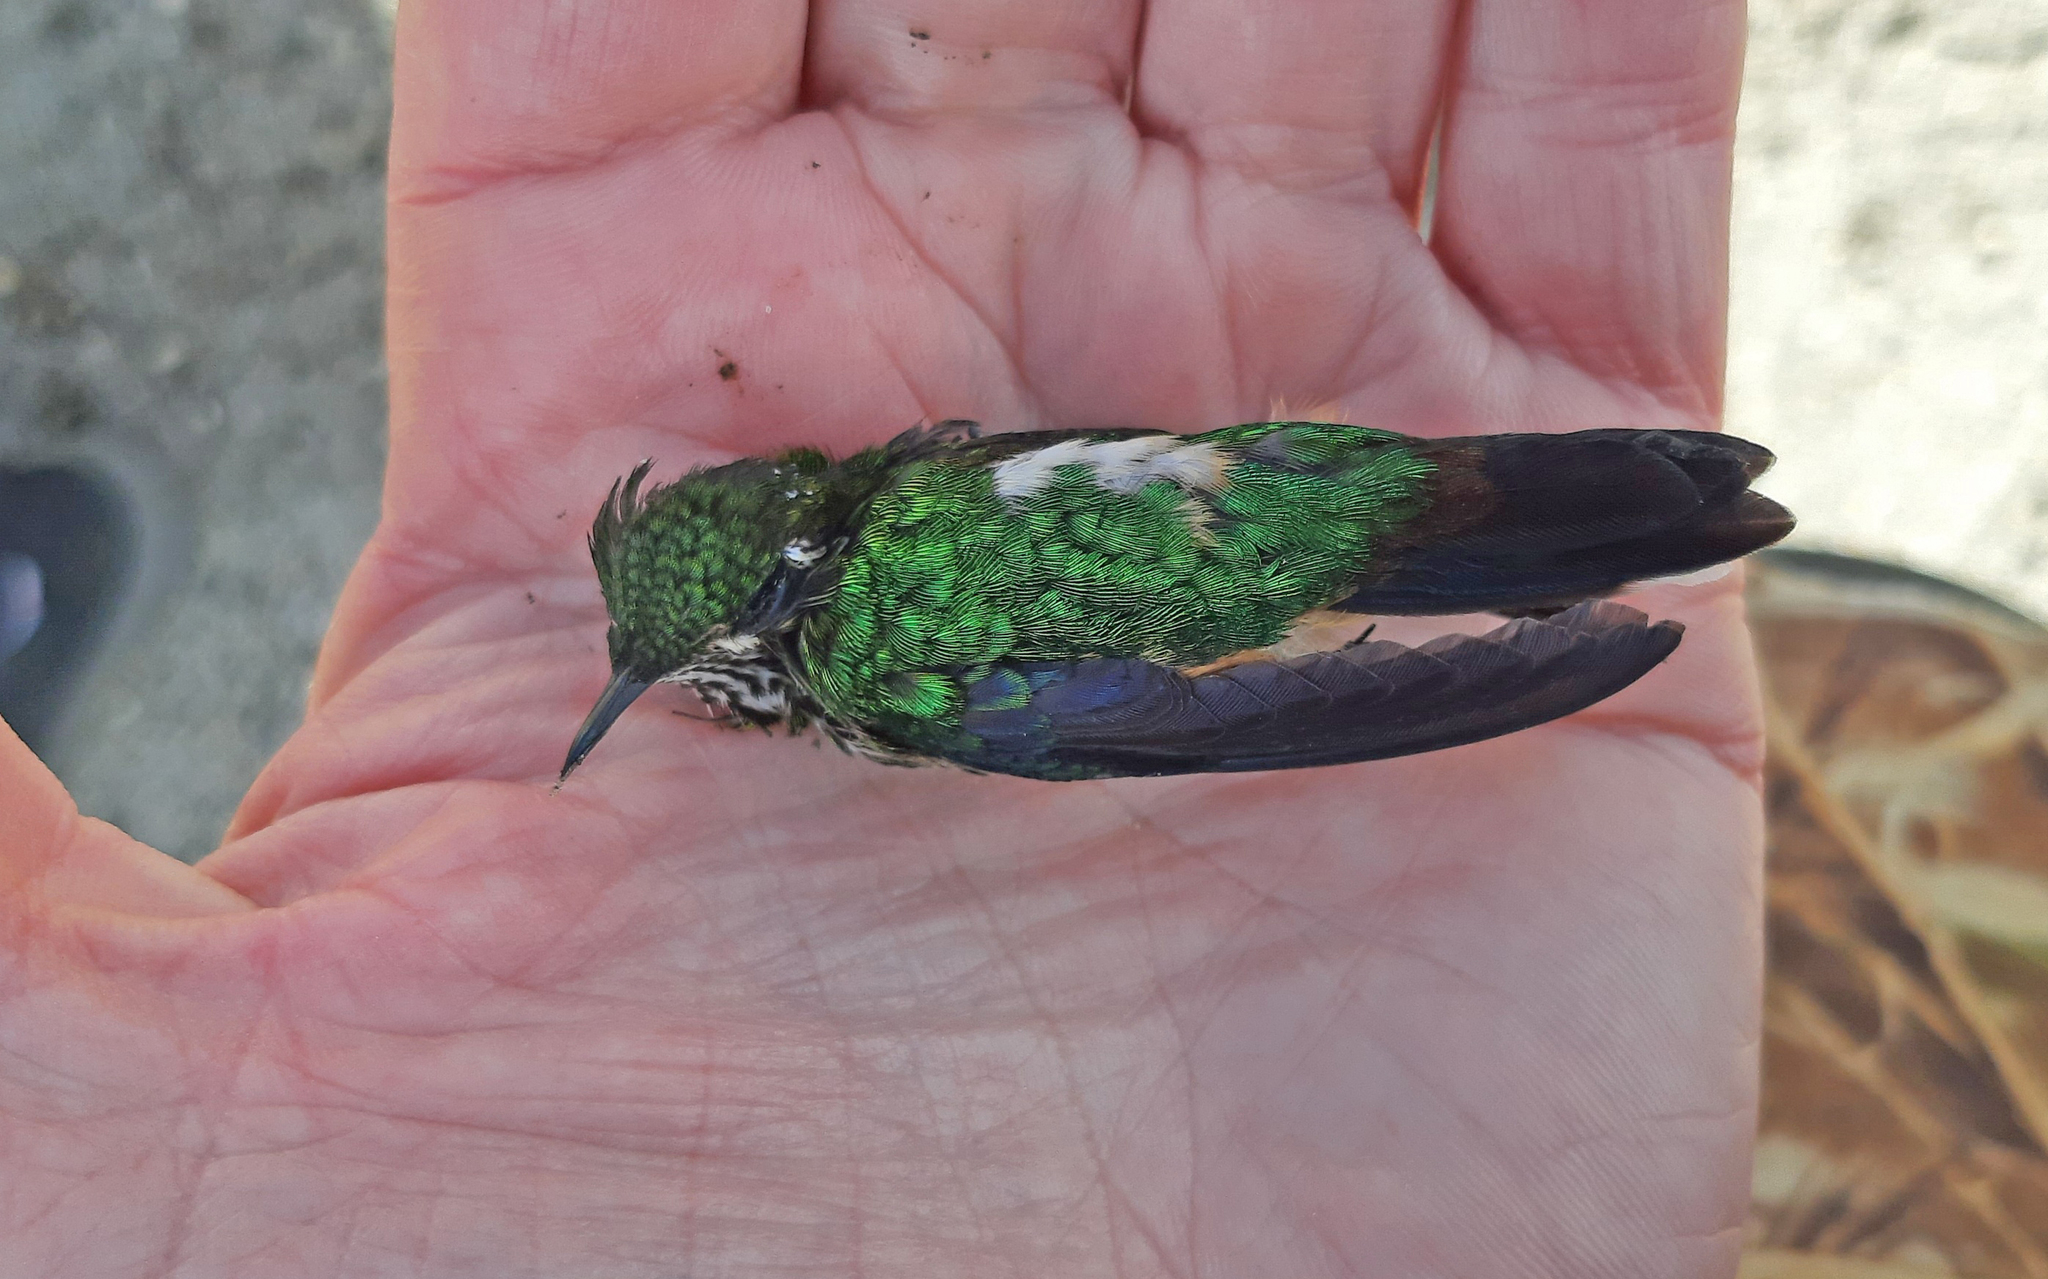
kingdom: Animalia
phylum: Chordata
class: Aves
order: Apodiformes
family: Trochilidae
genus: Ramphomicron
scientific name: Ramphomicron microrhynchum
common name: Purple-backed thornbill
